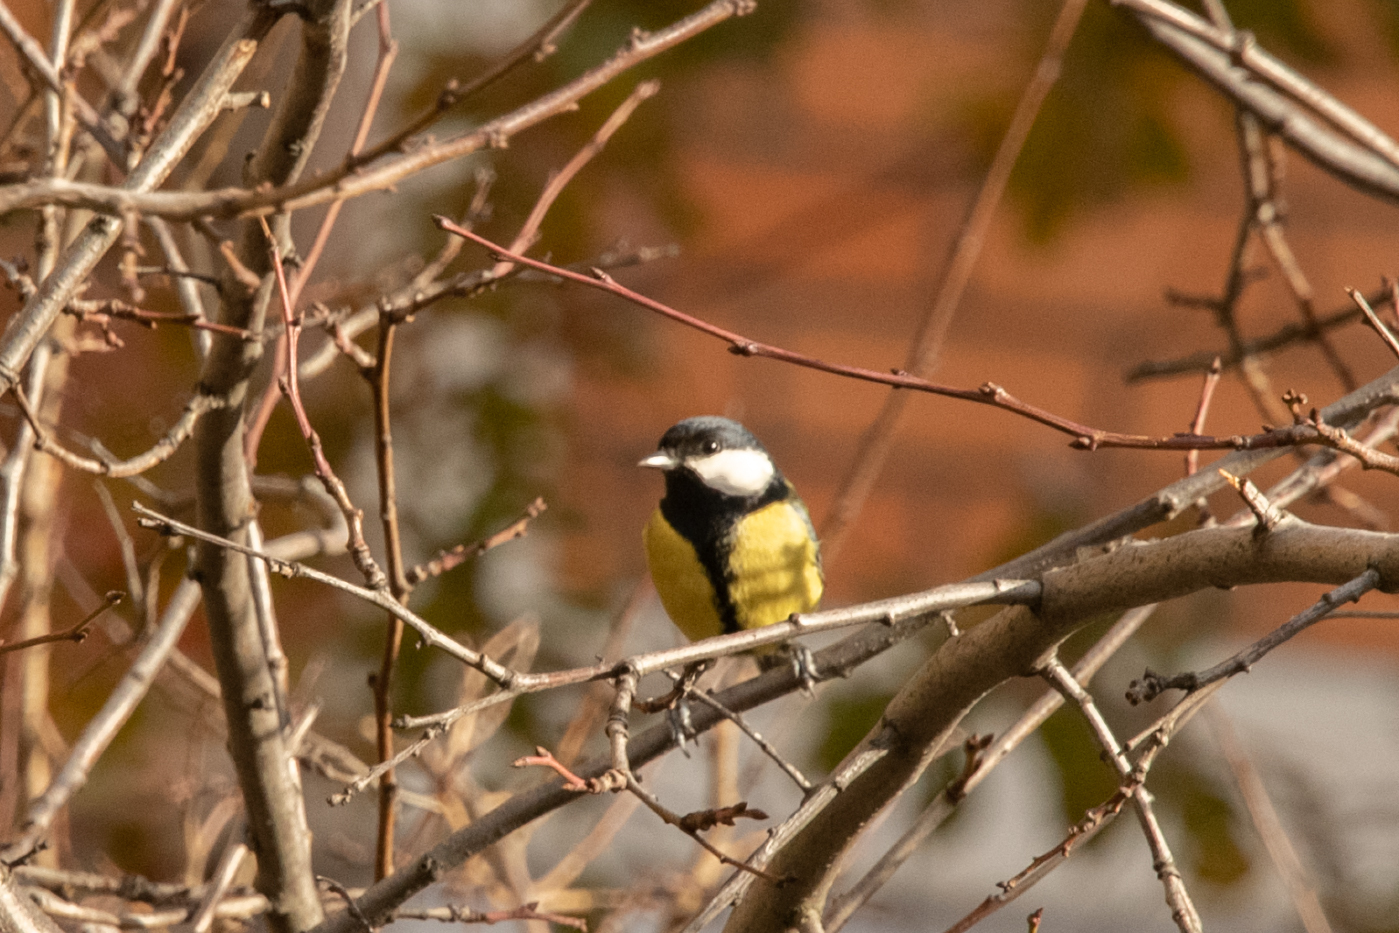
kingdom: Animalia
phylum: Chordata
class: Aves
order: Passeriformes
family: Paridae
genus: Parus
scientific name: Parus major
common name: Great tit
